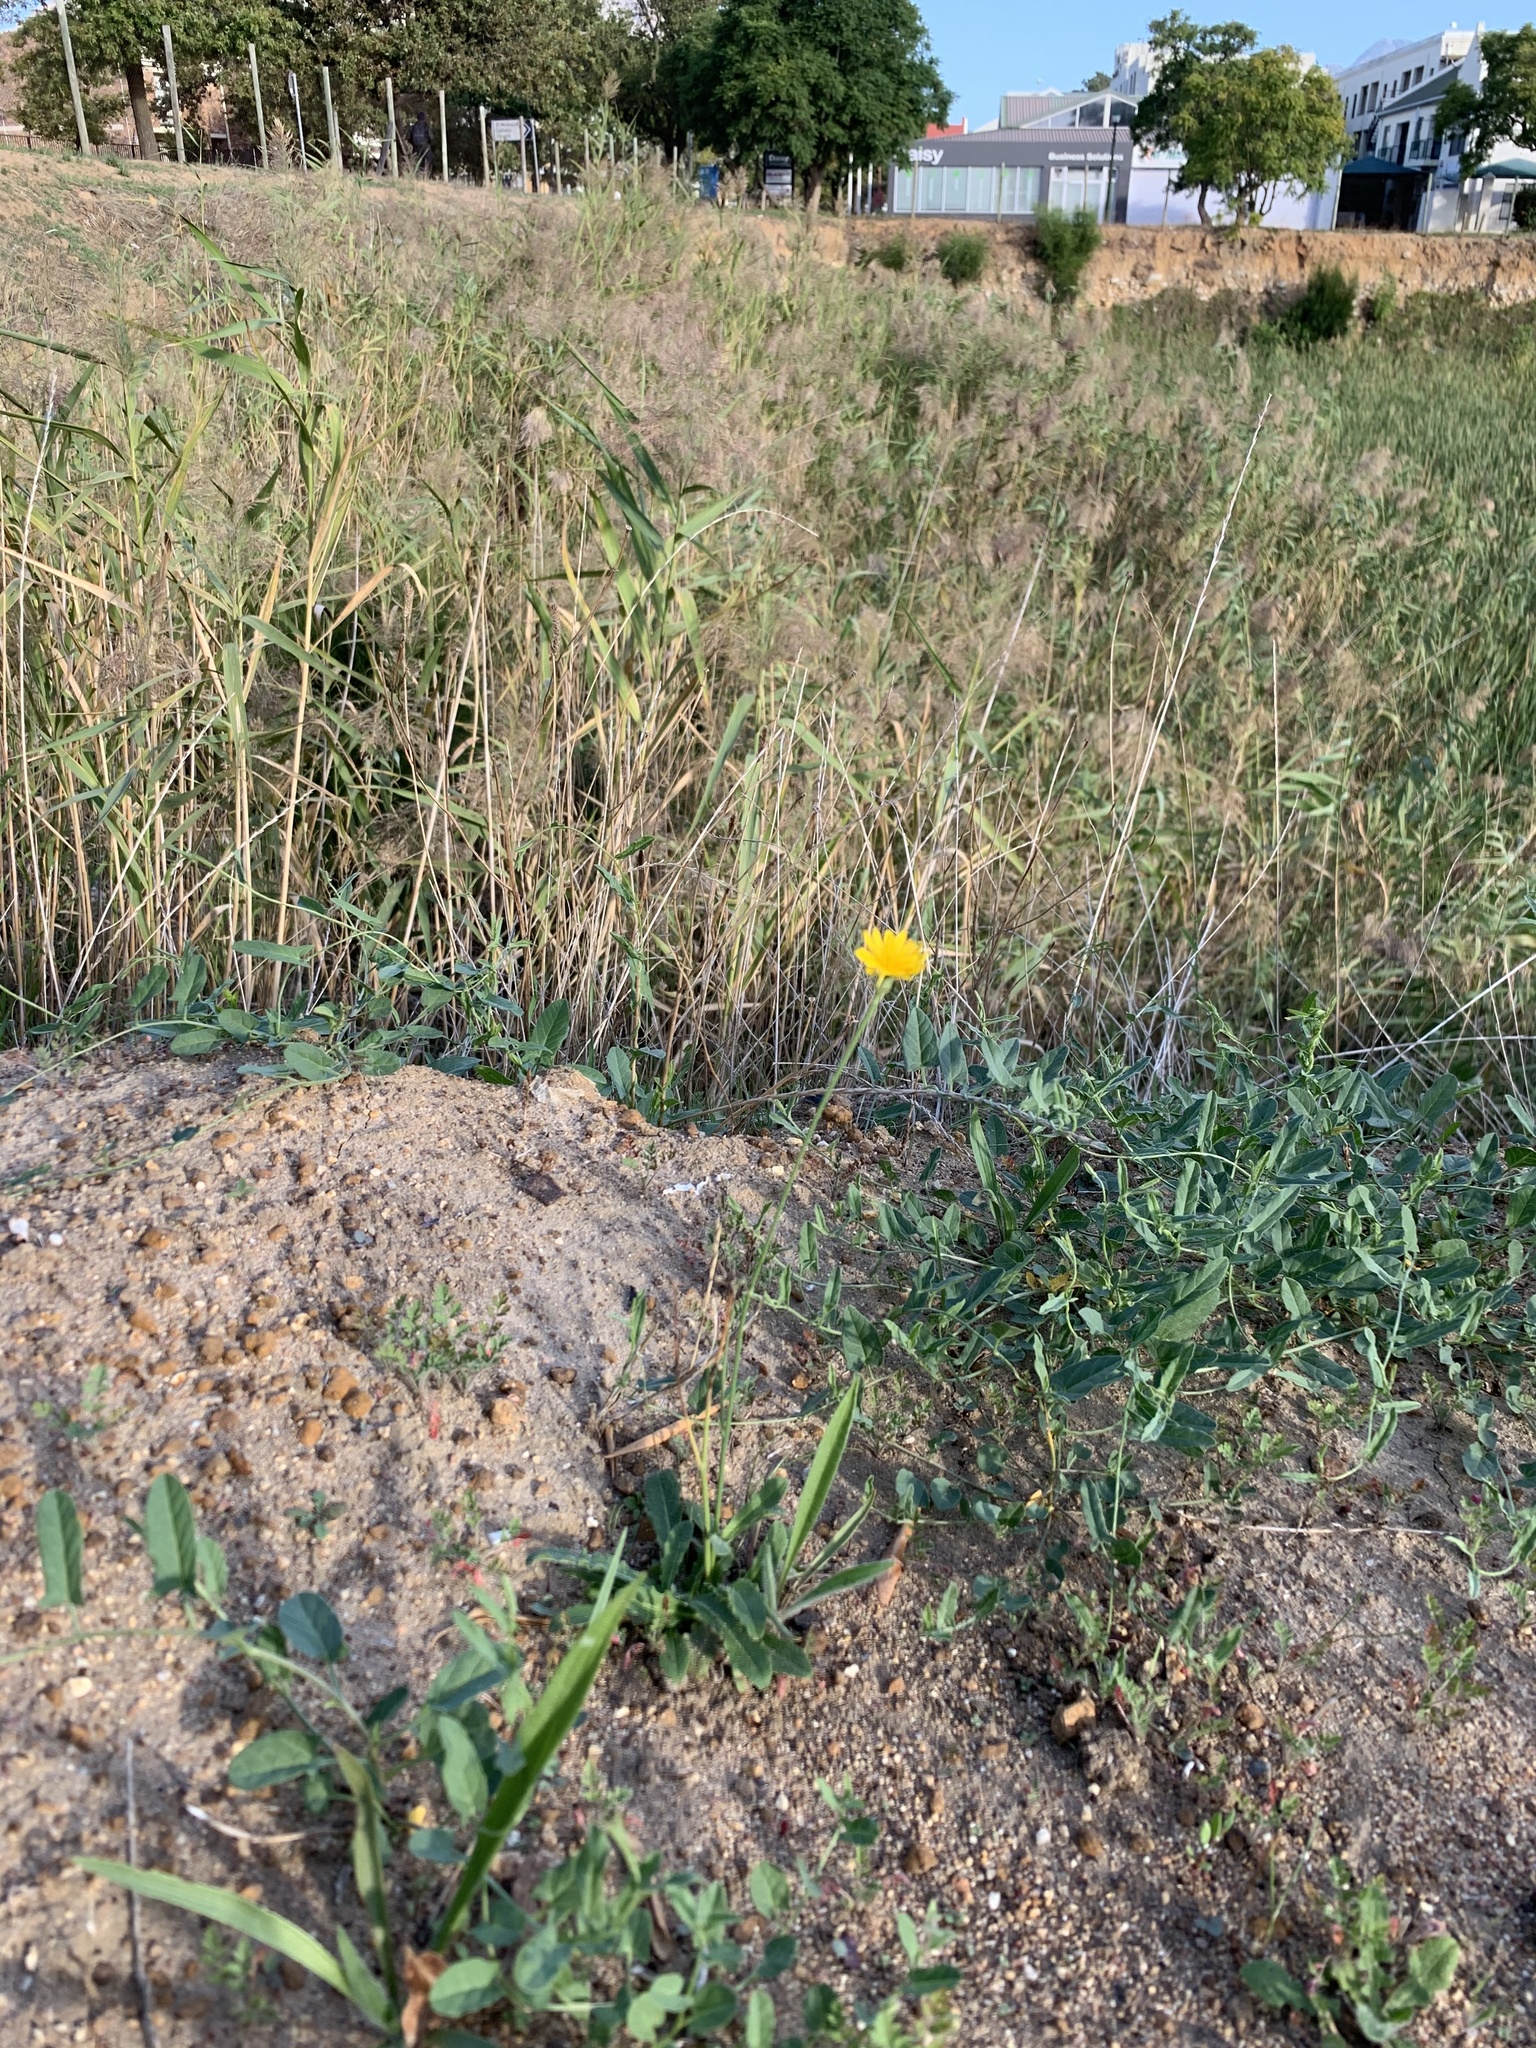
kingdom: Plantae
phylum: Tracheophyta
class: Magnoliopsida
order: Asterales
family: Asteraceae
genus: Hypochaeris
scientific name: Hypochaeris radicata
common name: Flatweed
